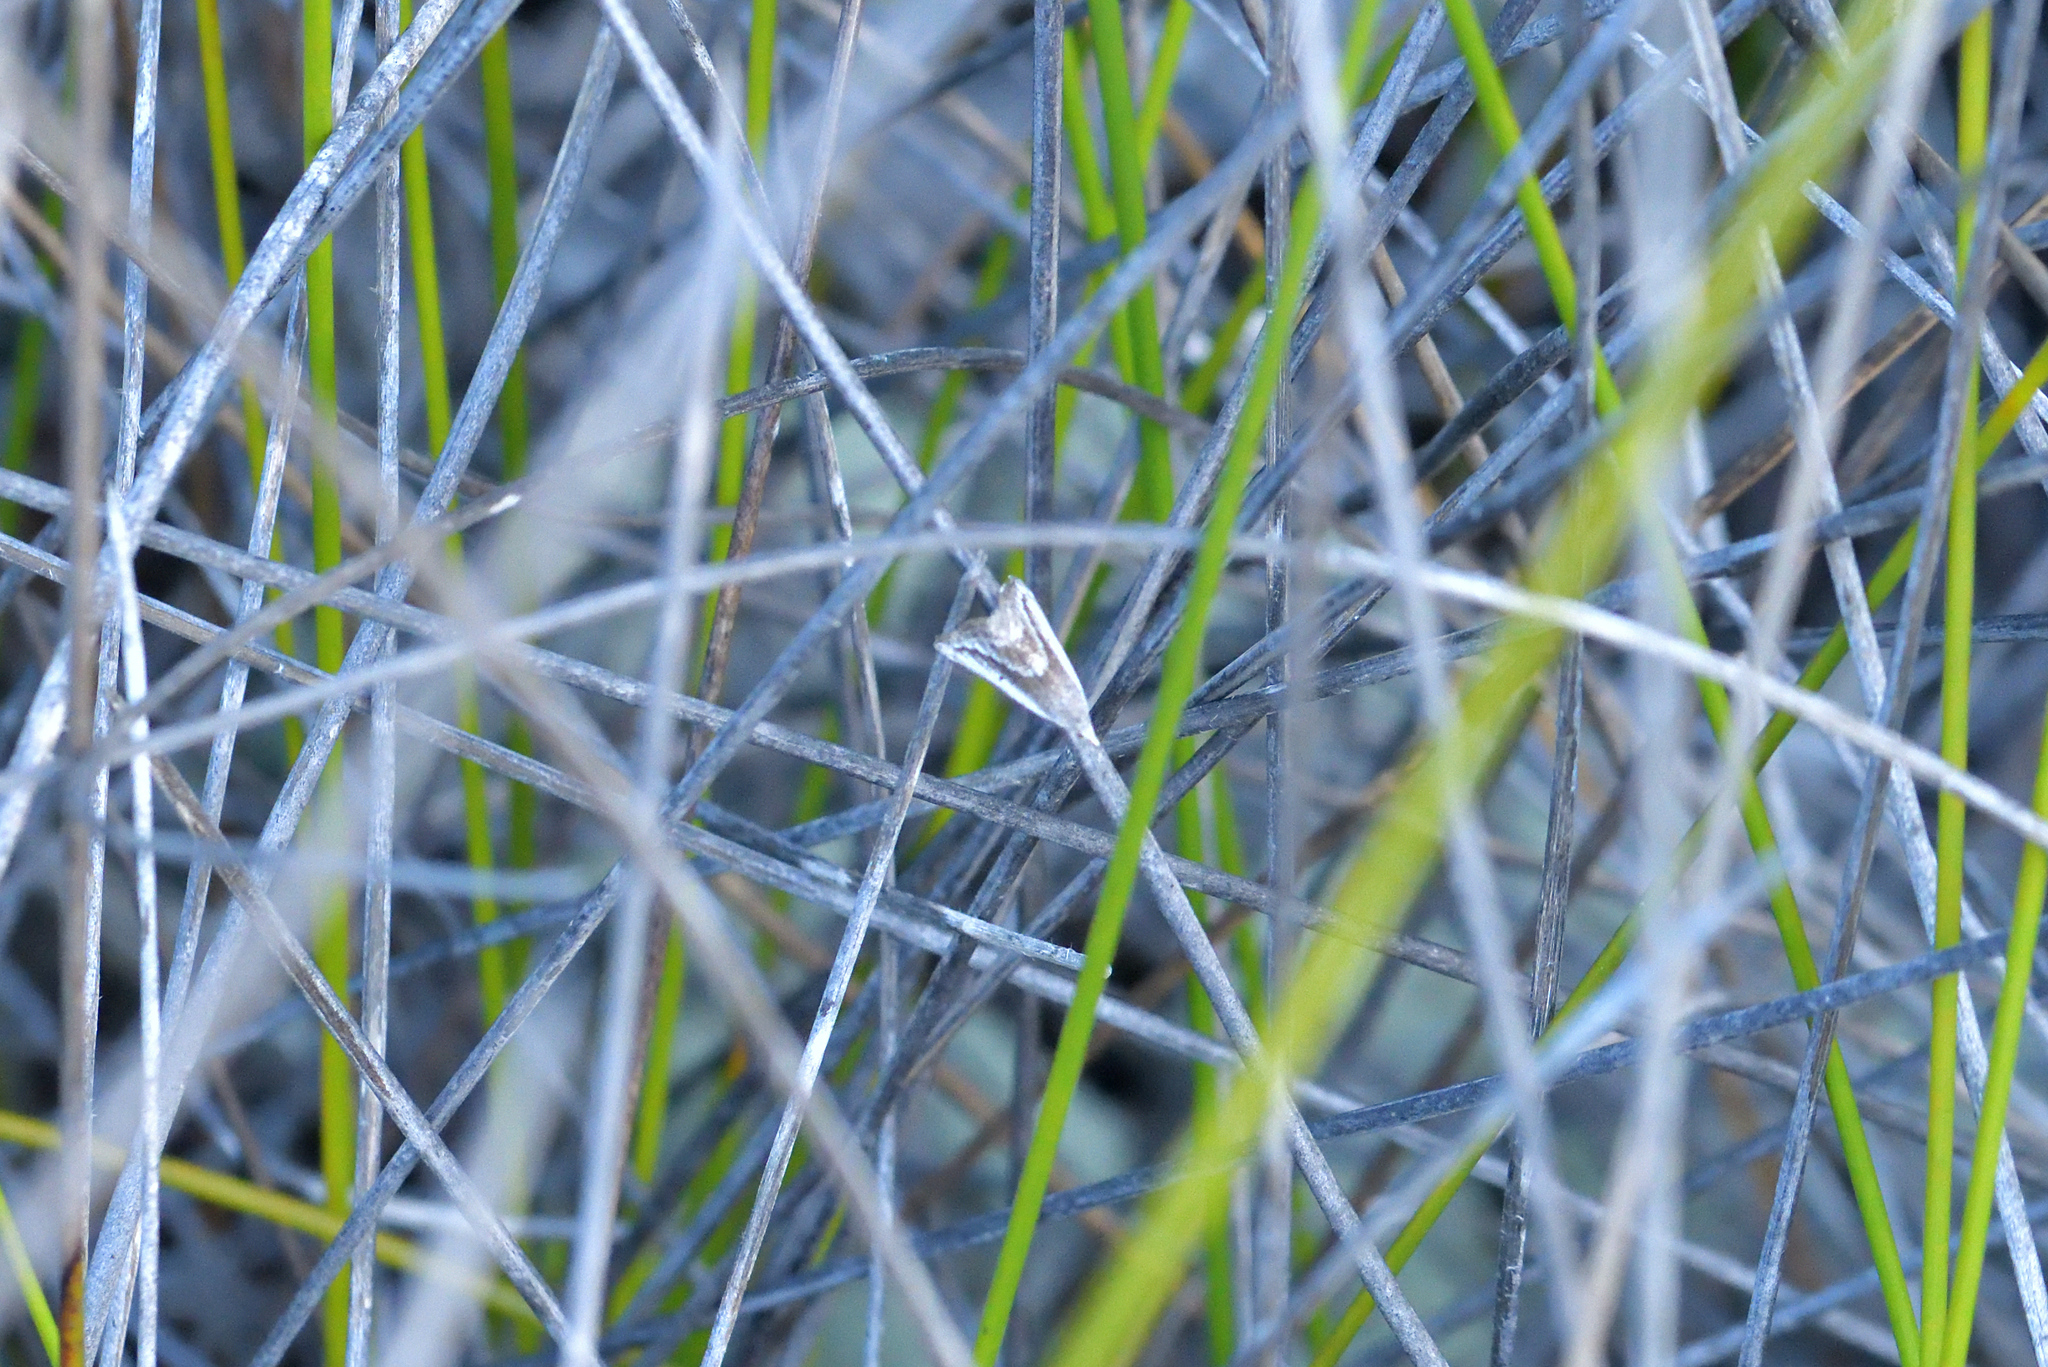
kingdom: Animalia
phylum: Arthropoda
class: Insecta
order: Lepidoptera
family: Geometridae
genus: Adeixis
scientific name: Adeixis griseata
